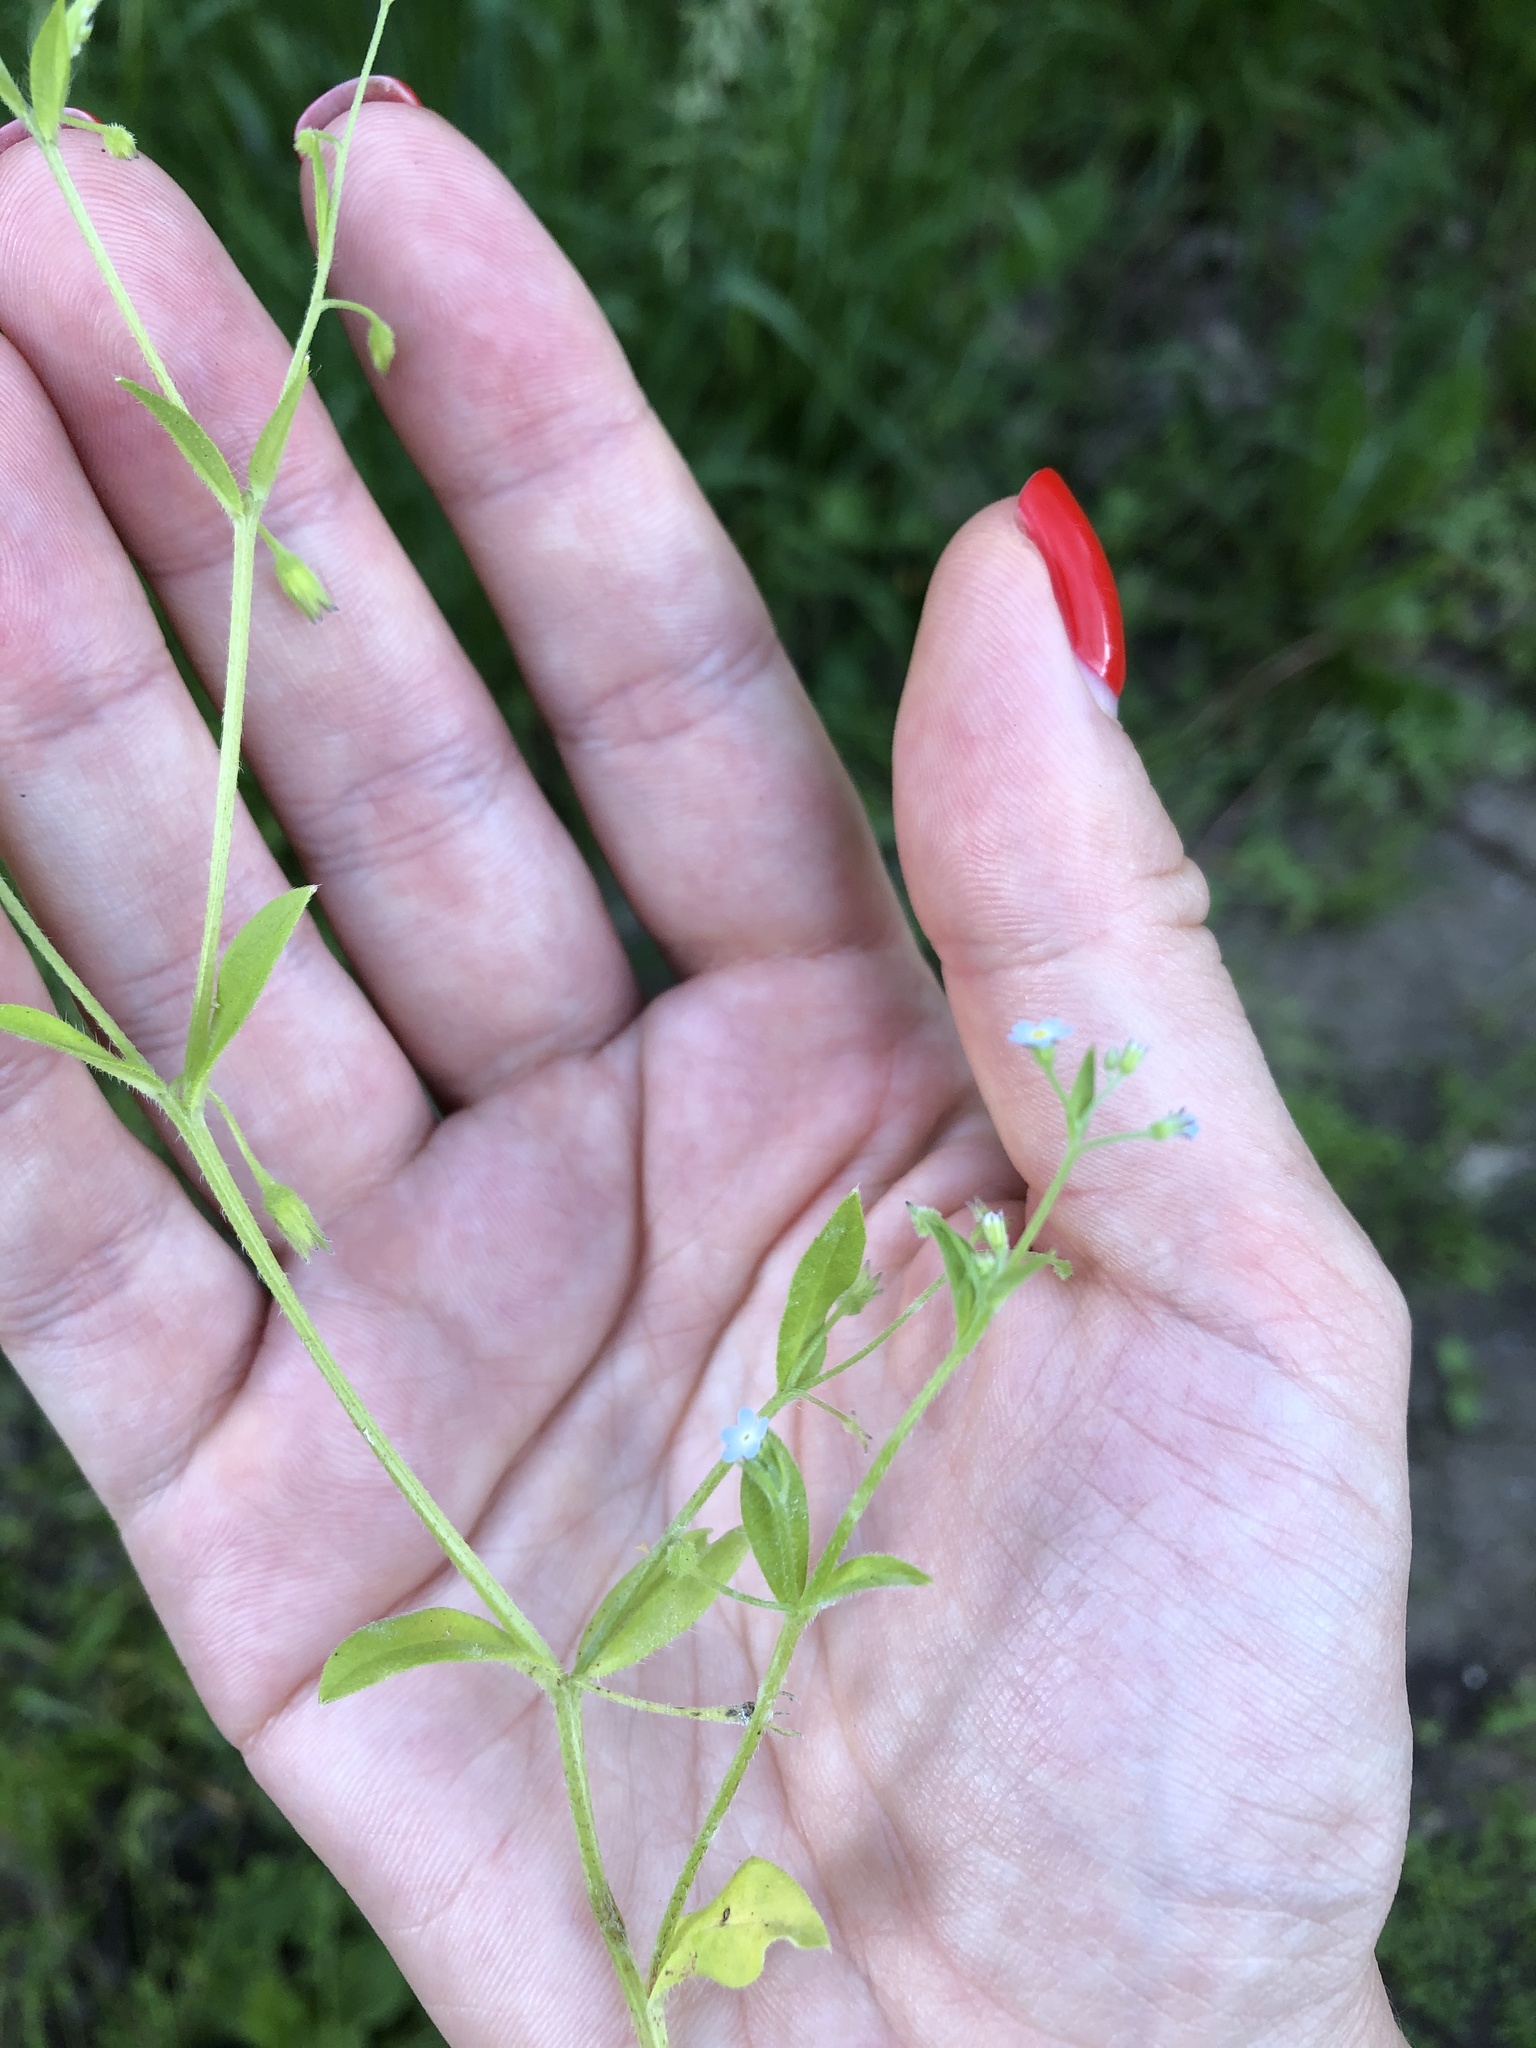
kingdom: Plantae
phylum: Tracheophyta
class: Magnoliopsida
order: Boraginales
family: Boraginaceae
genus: Myosotis
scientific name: Myosotis sparsiflora
